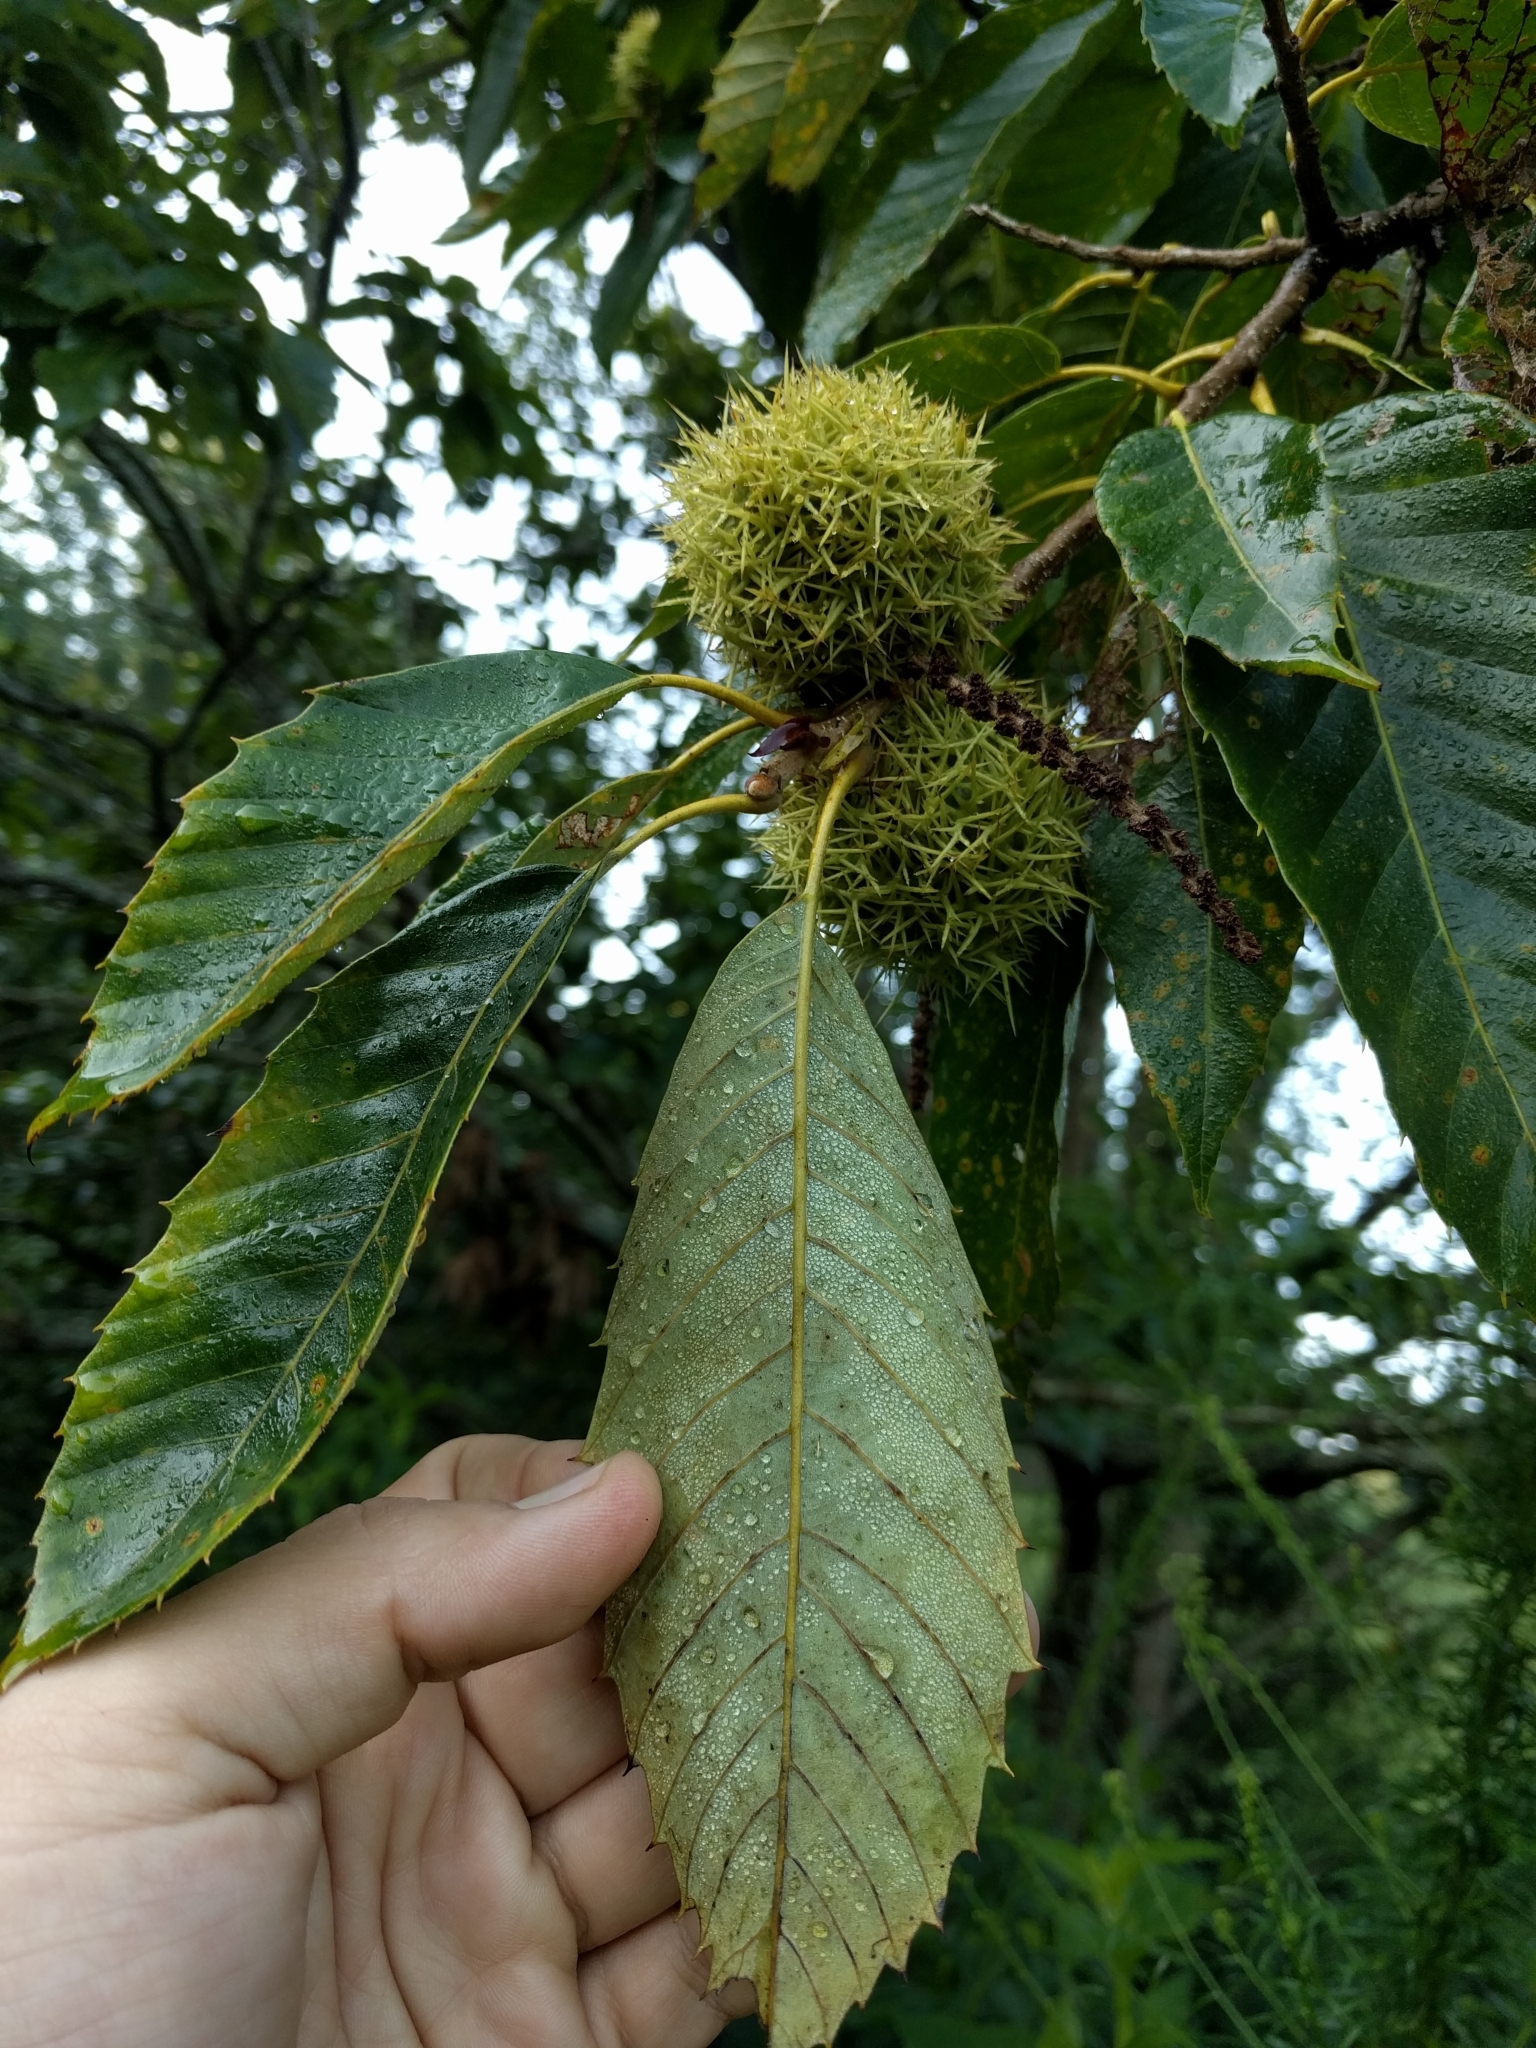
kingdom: Plantae
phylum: Tracheophyta
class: Magnoliopsida
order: Fagales
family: Fagaceae
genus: Castanea
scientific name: Castanea mollissima
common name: Chinese chestnut
